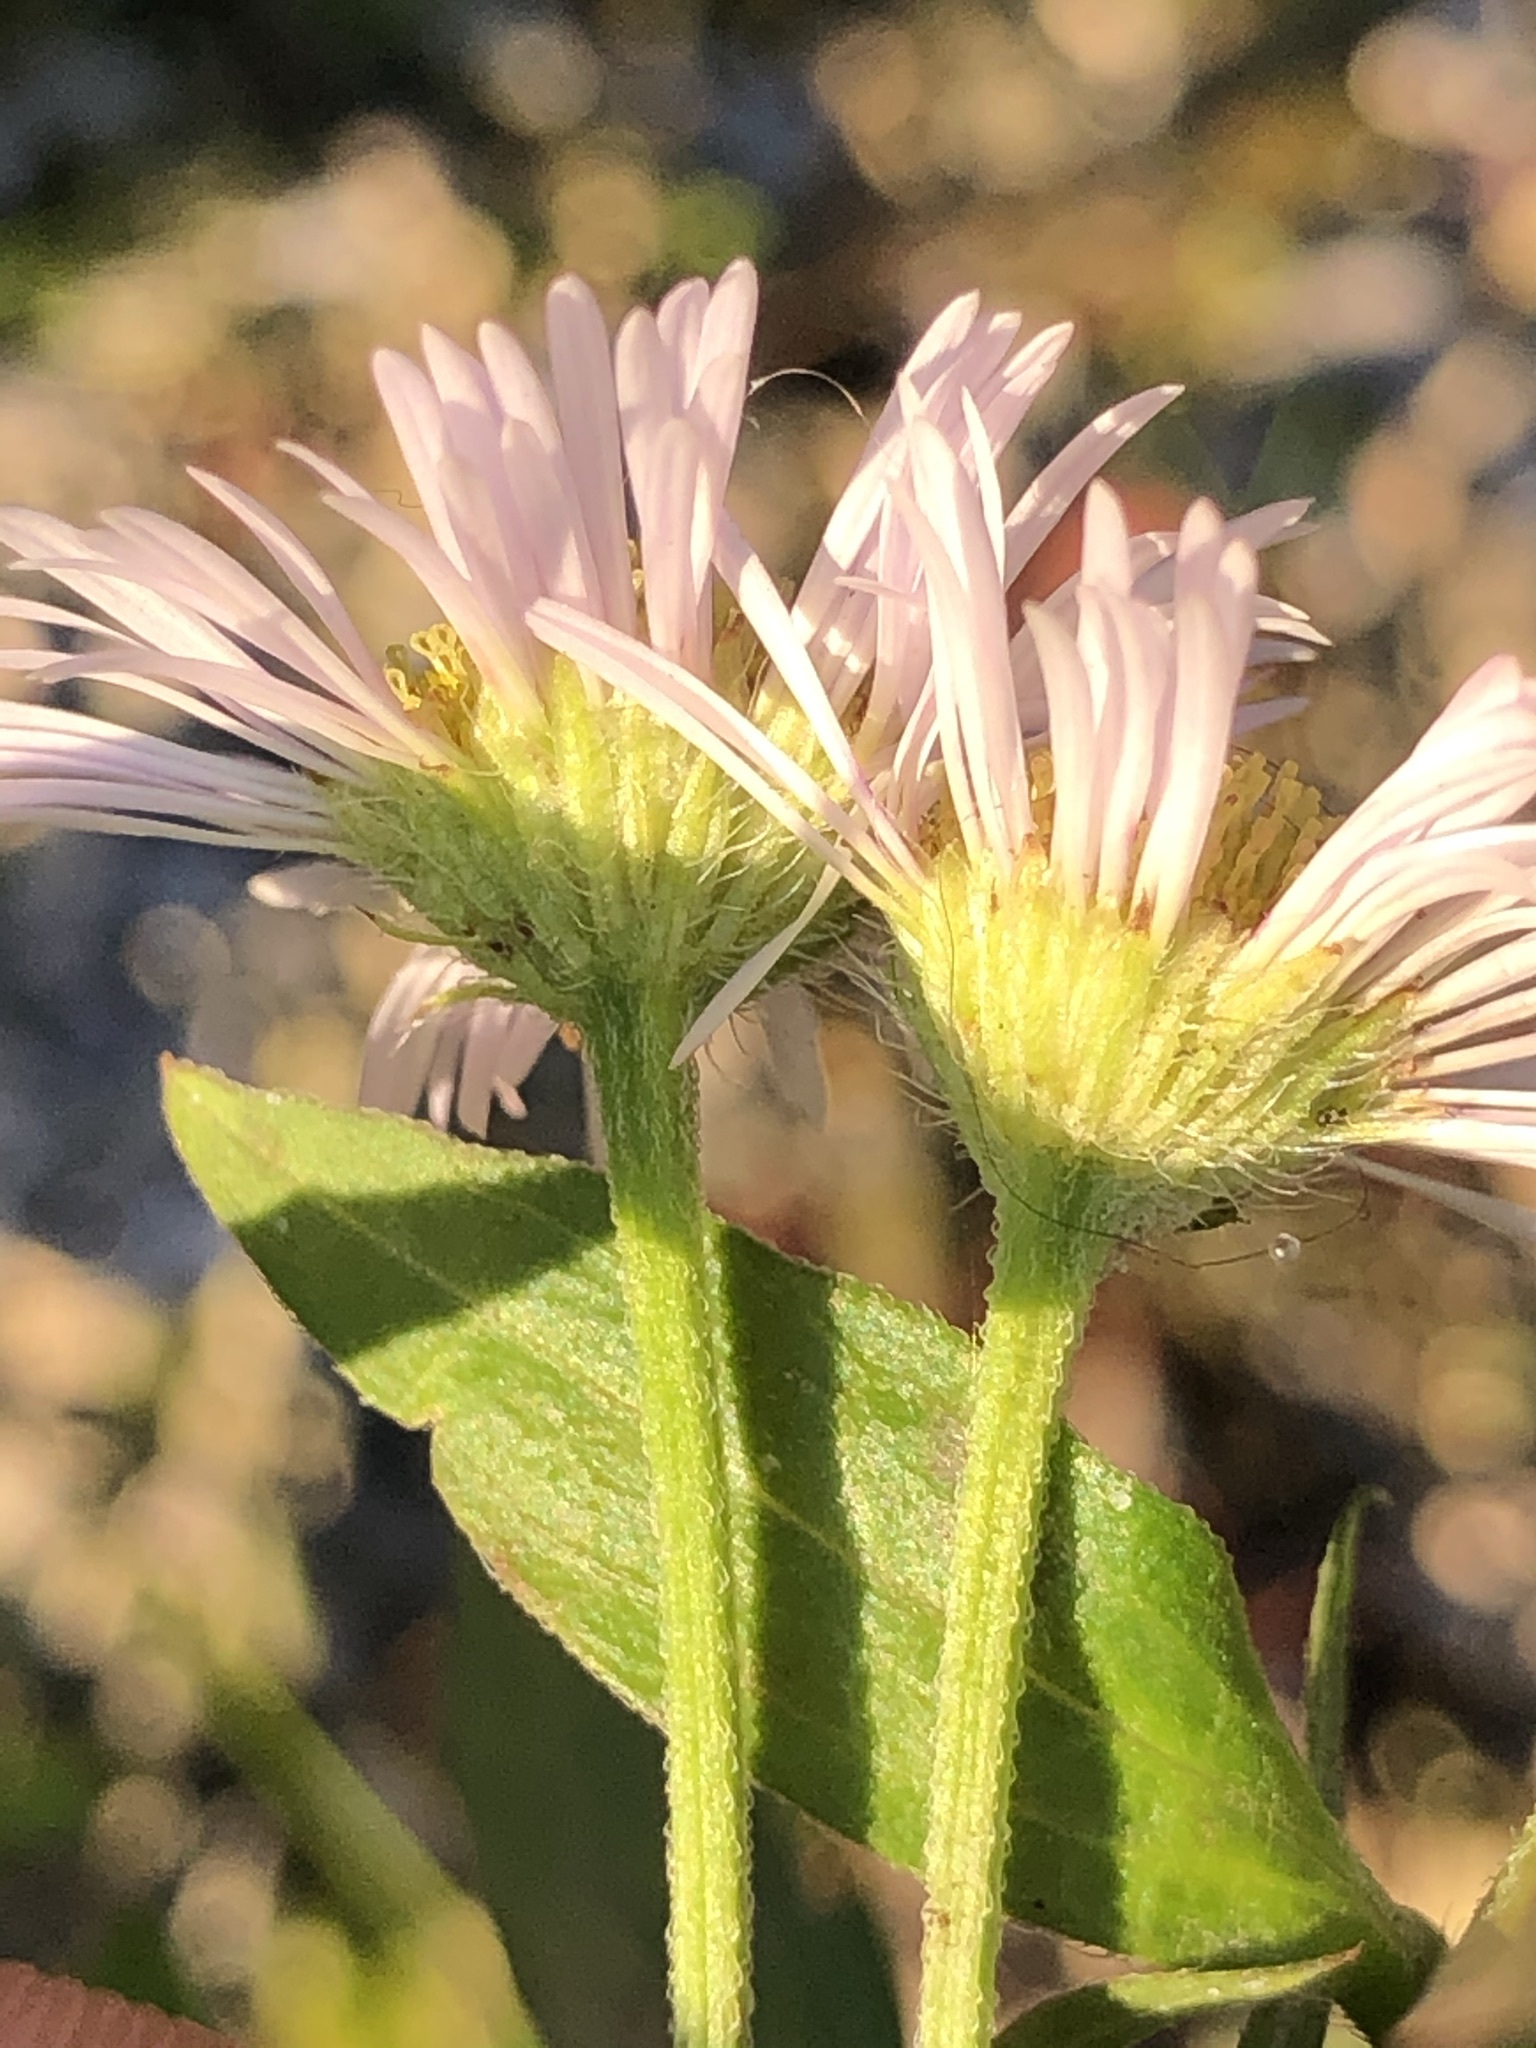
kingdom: Plantae
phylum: Tracheophyta
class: Magnoliopsida
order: Asterales
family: Asteraceae
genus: Erigeron
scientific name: Erigeron annuus
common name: Tall fleabane
